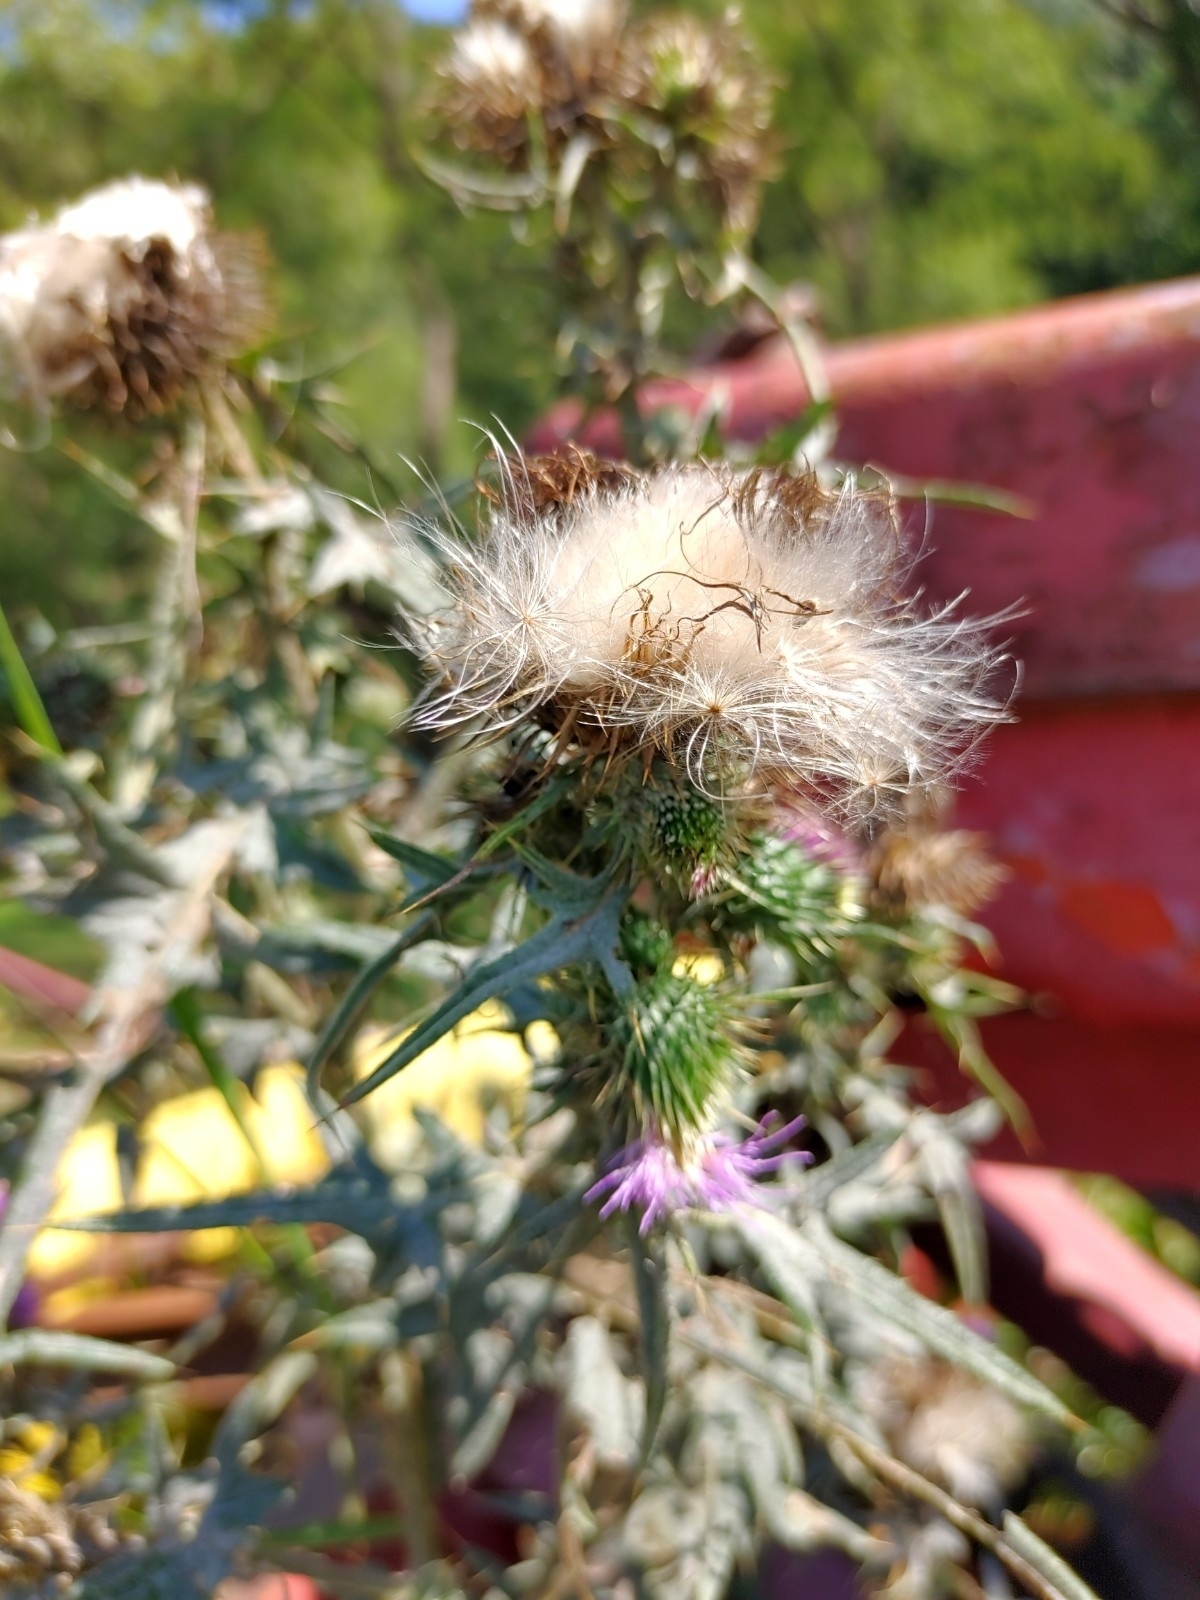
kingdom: Plantae
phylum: Tracheophyta
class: Magnoliopsida
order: Asterales
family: Asteraceae
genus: Cirsium
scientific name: Cirsium vulgare
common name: Bull thistle
